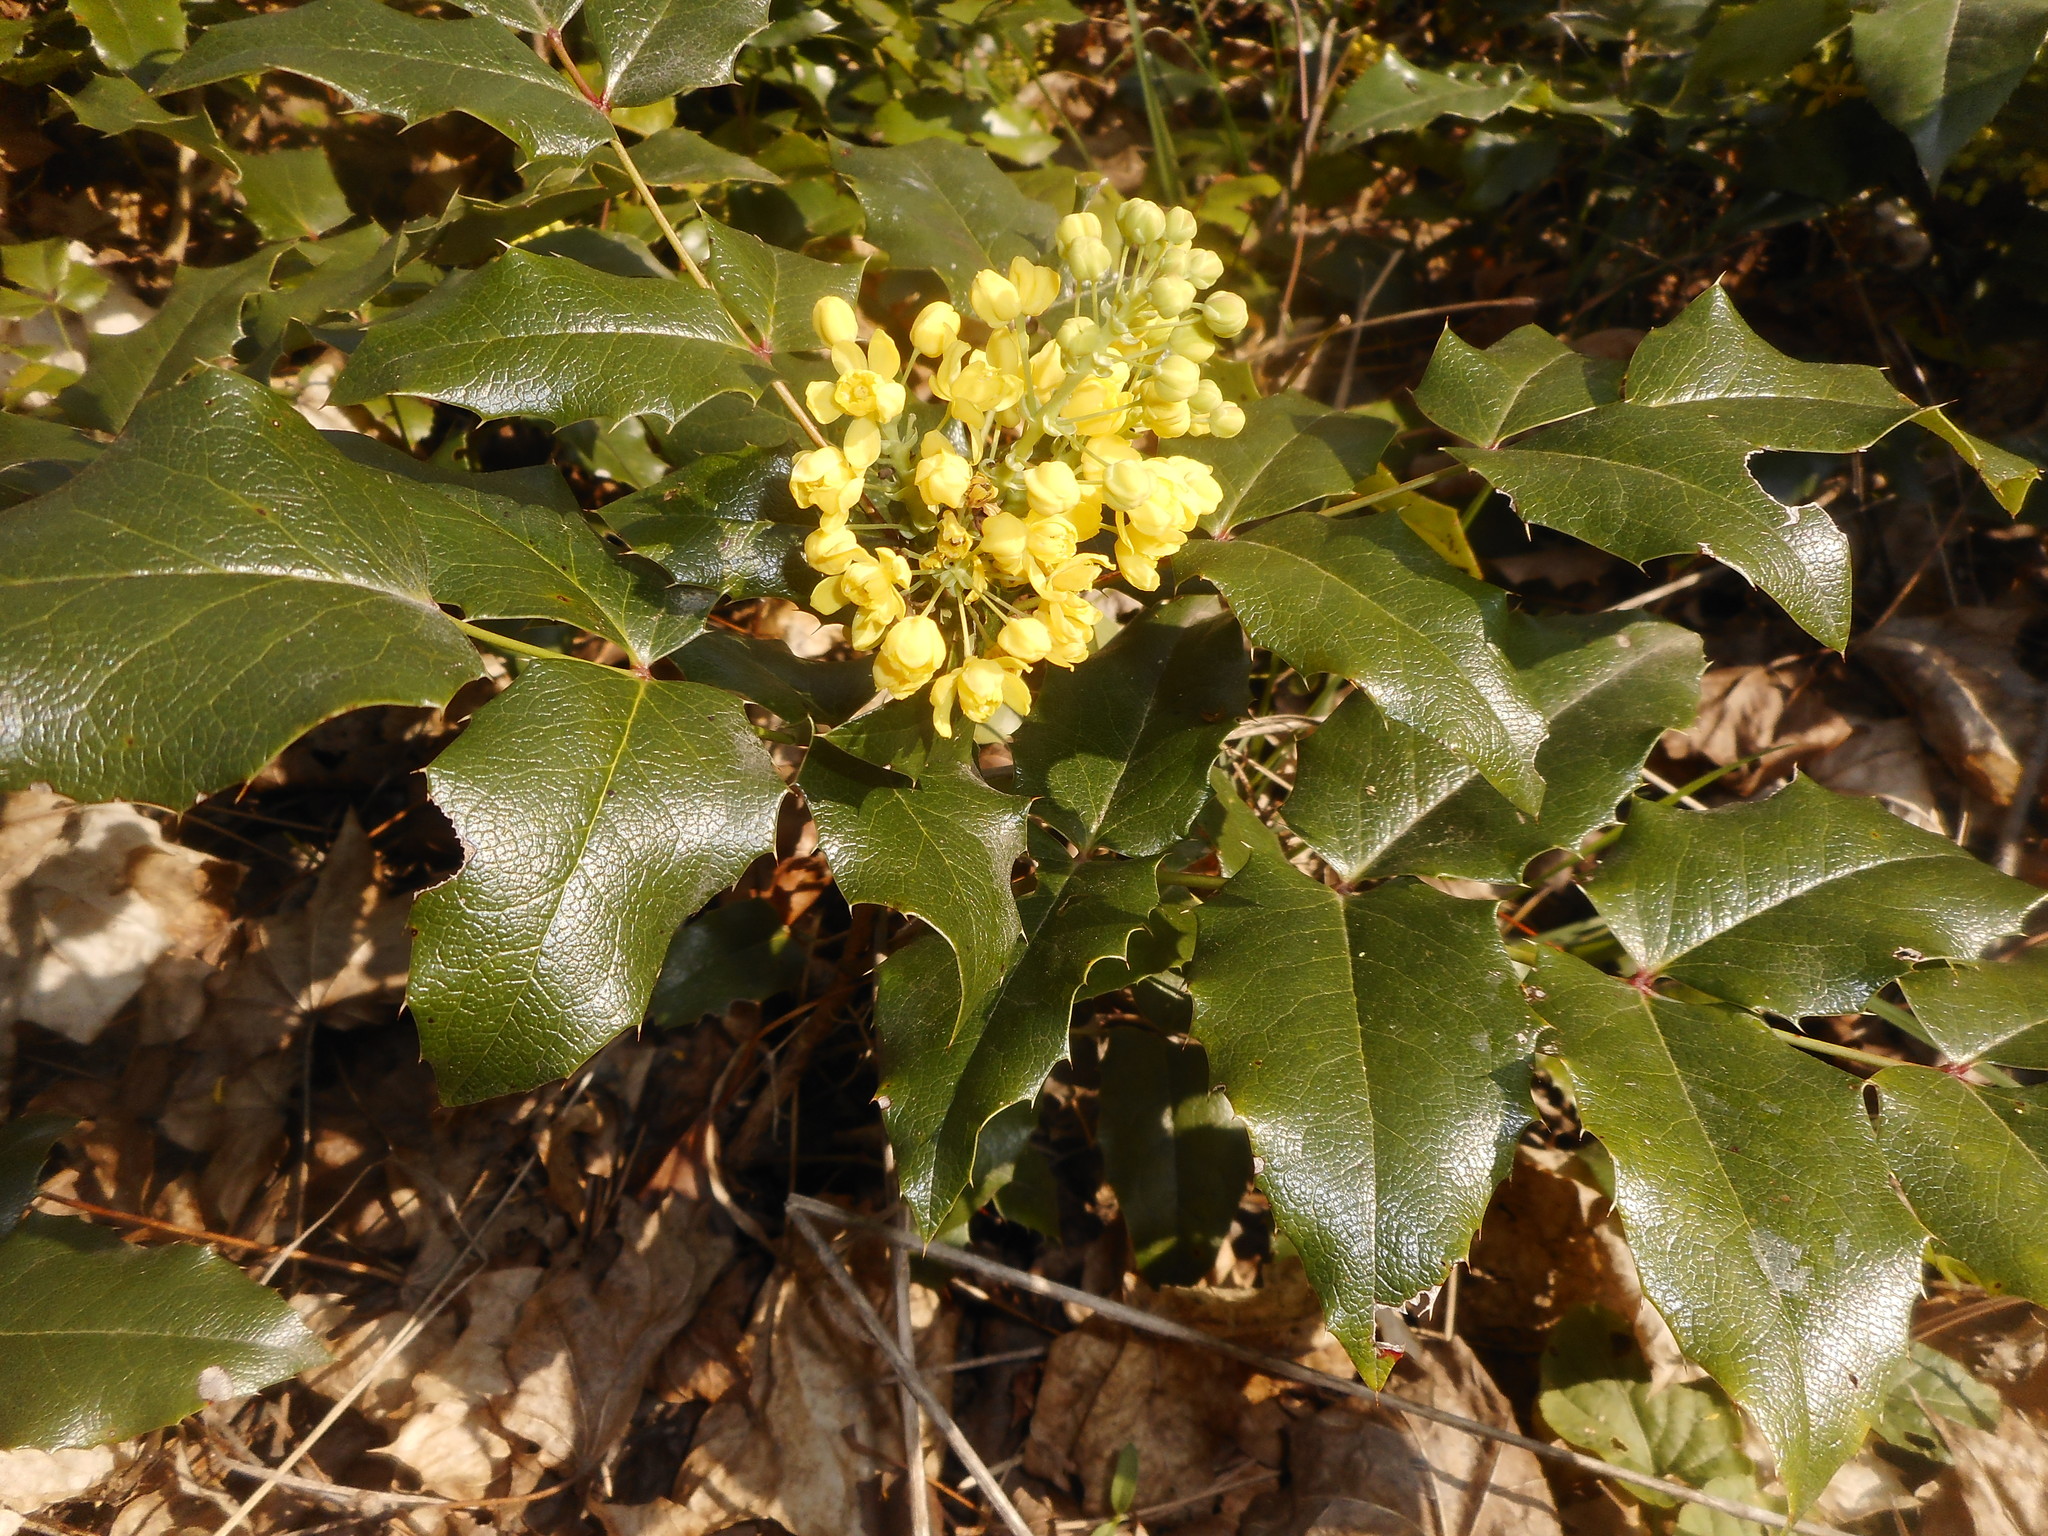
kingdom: Plantae
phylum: Tracheophyta
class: Magnoliopsida
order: Ranunculales
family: Berberidaceae
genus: Mahonia
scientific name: Mahonia aquifolium
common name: Oregon-grape
